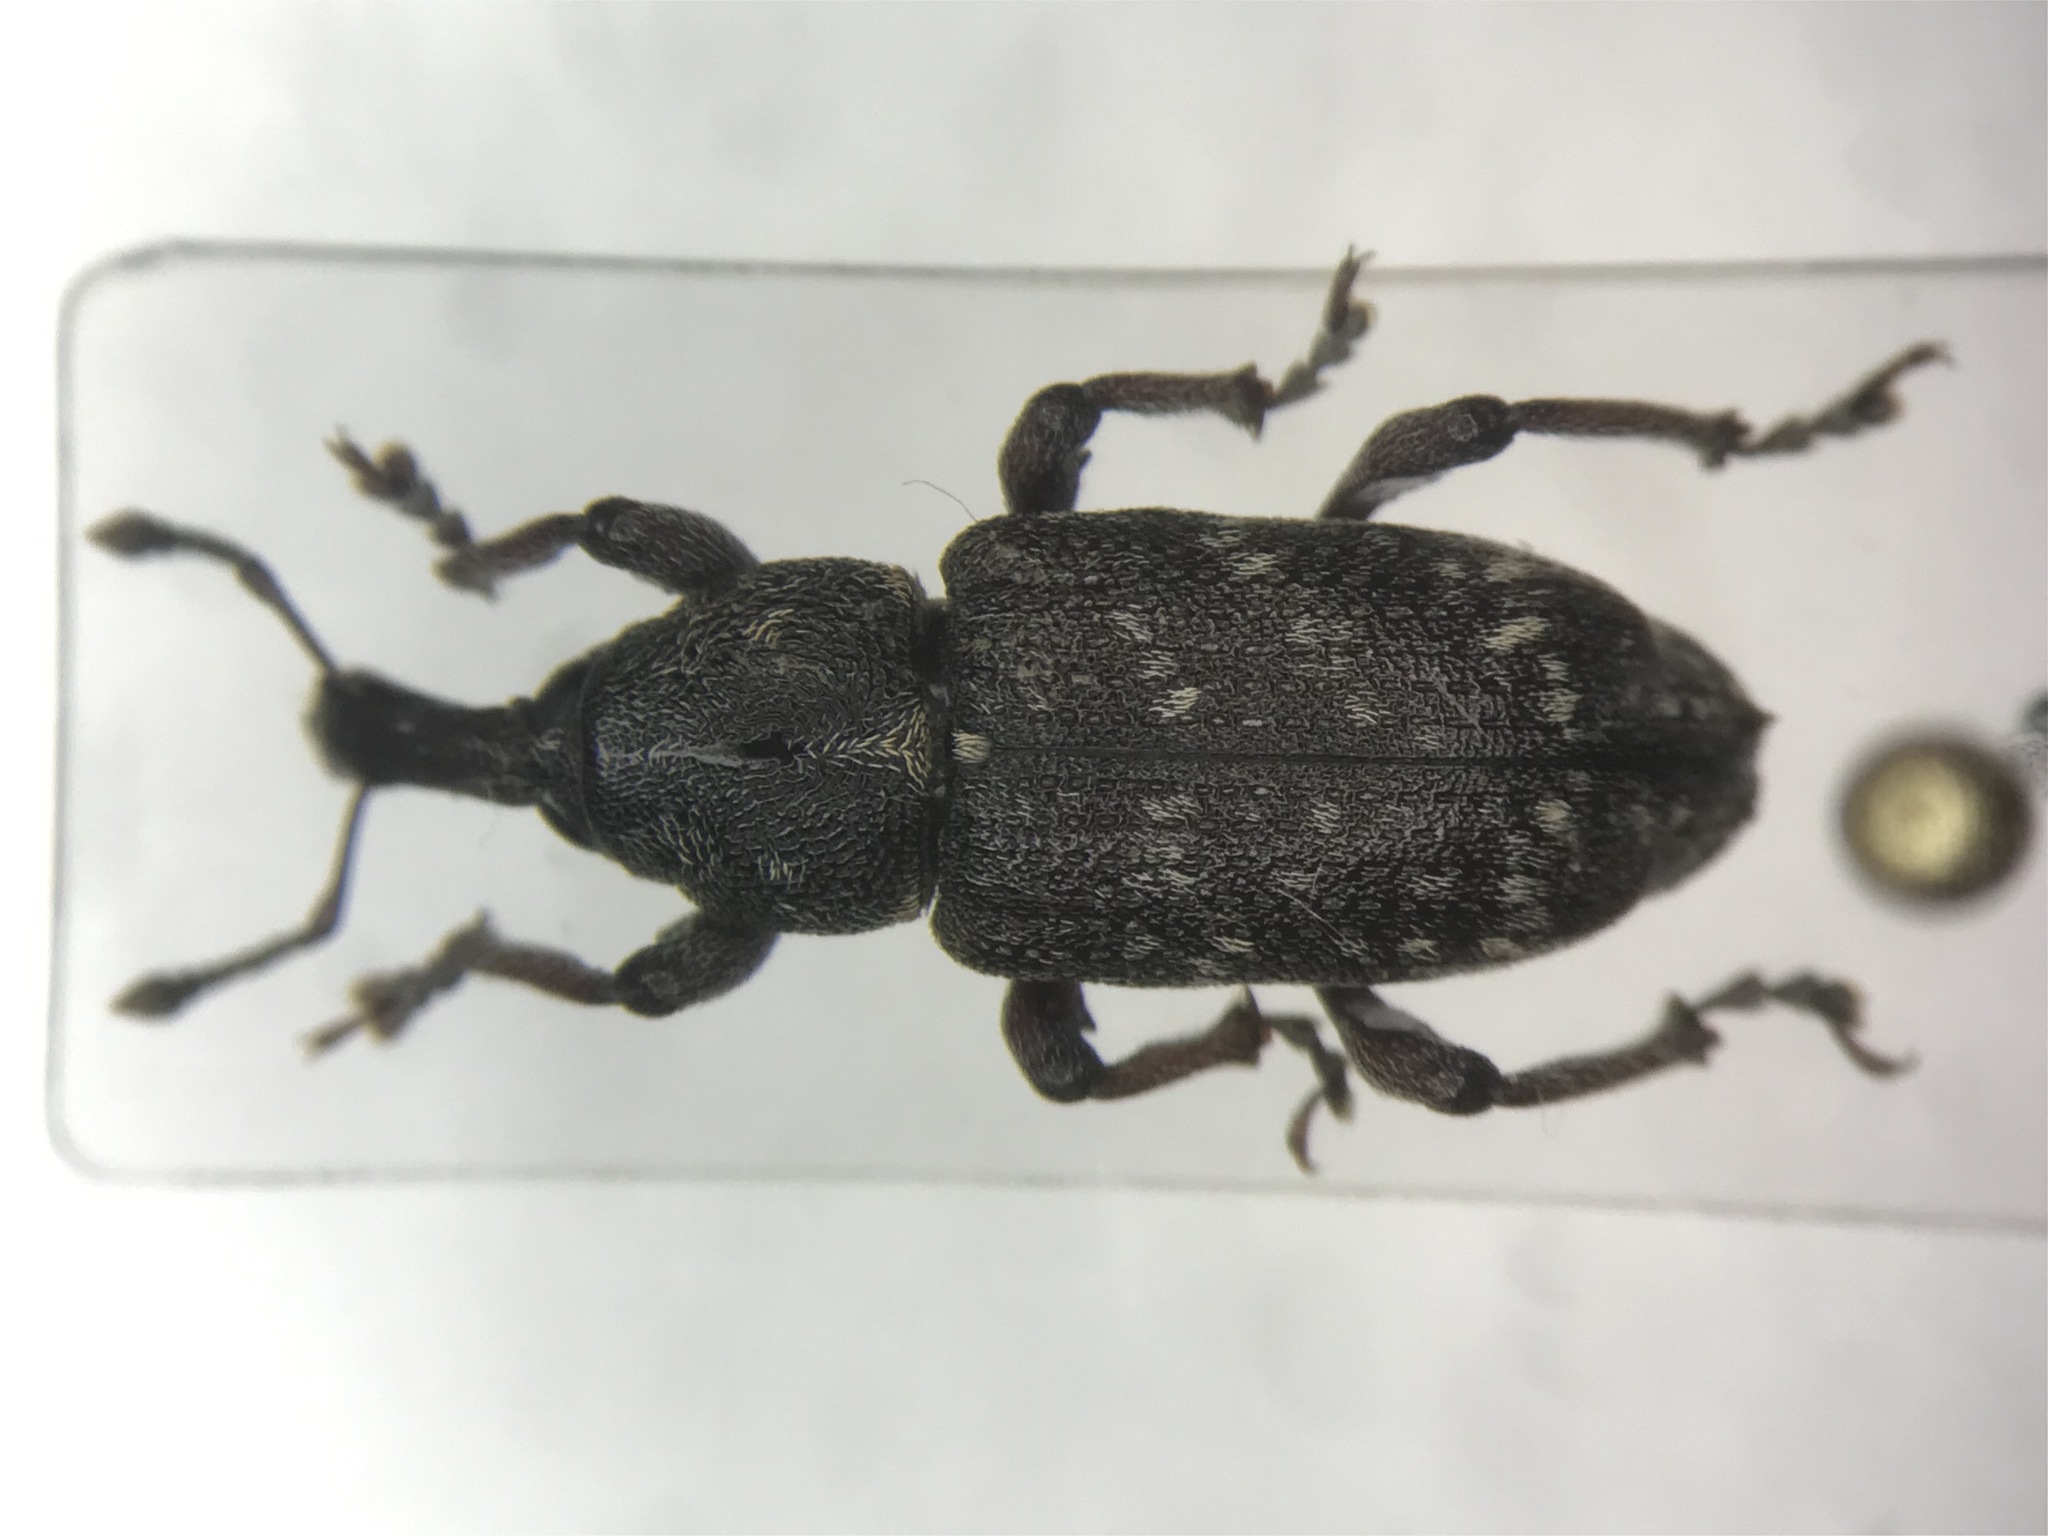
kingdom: Animalia
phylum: Arthropoda
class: Insecta
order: Coleoptera
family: Curculionidae
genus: Hylobius
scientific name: Hylobius pales
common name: Pales weevil
